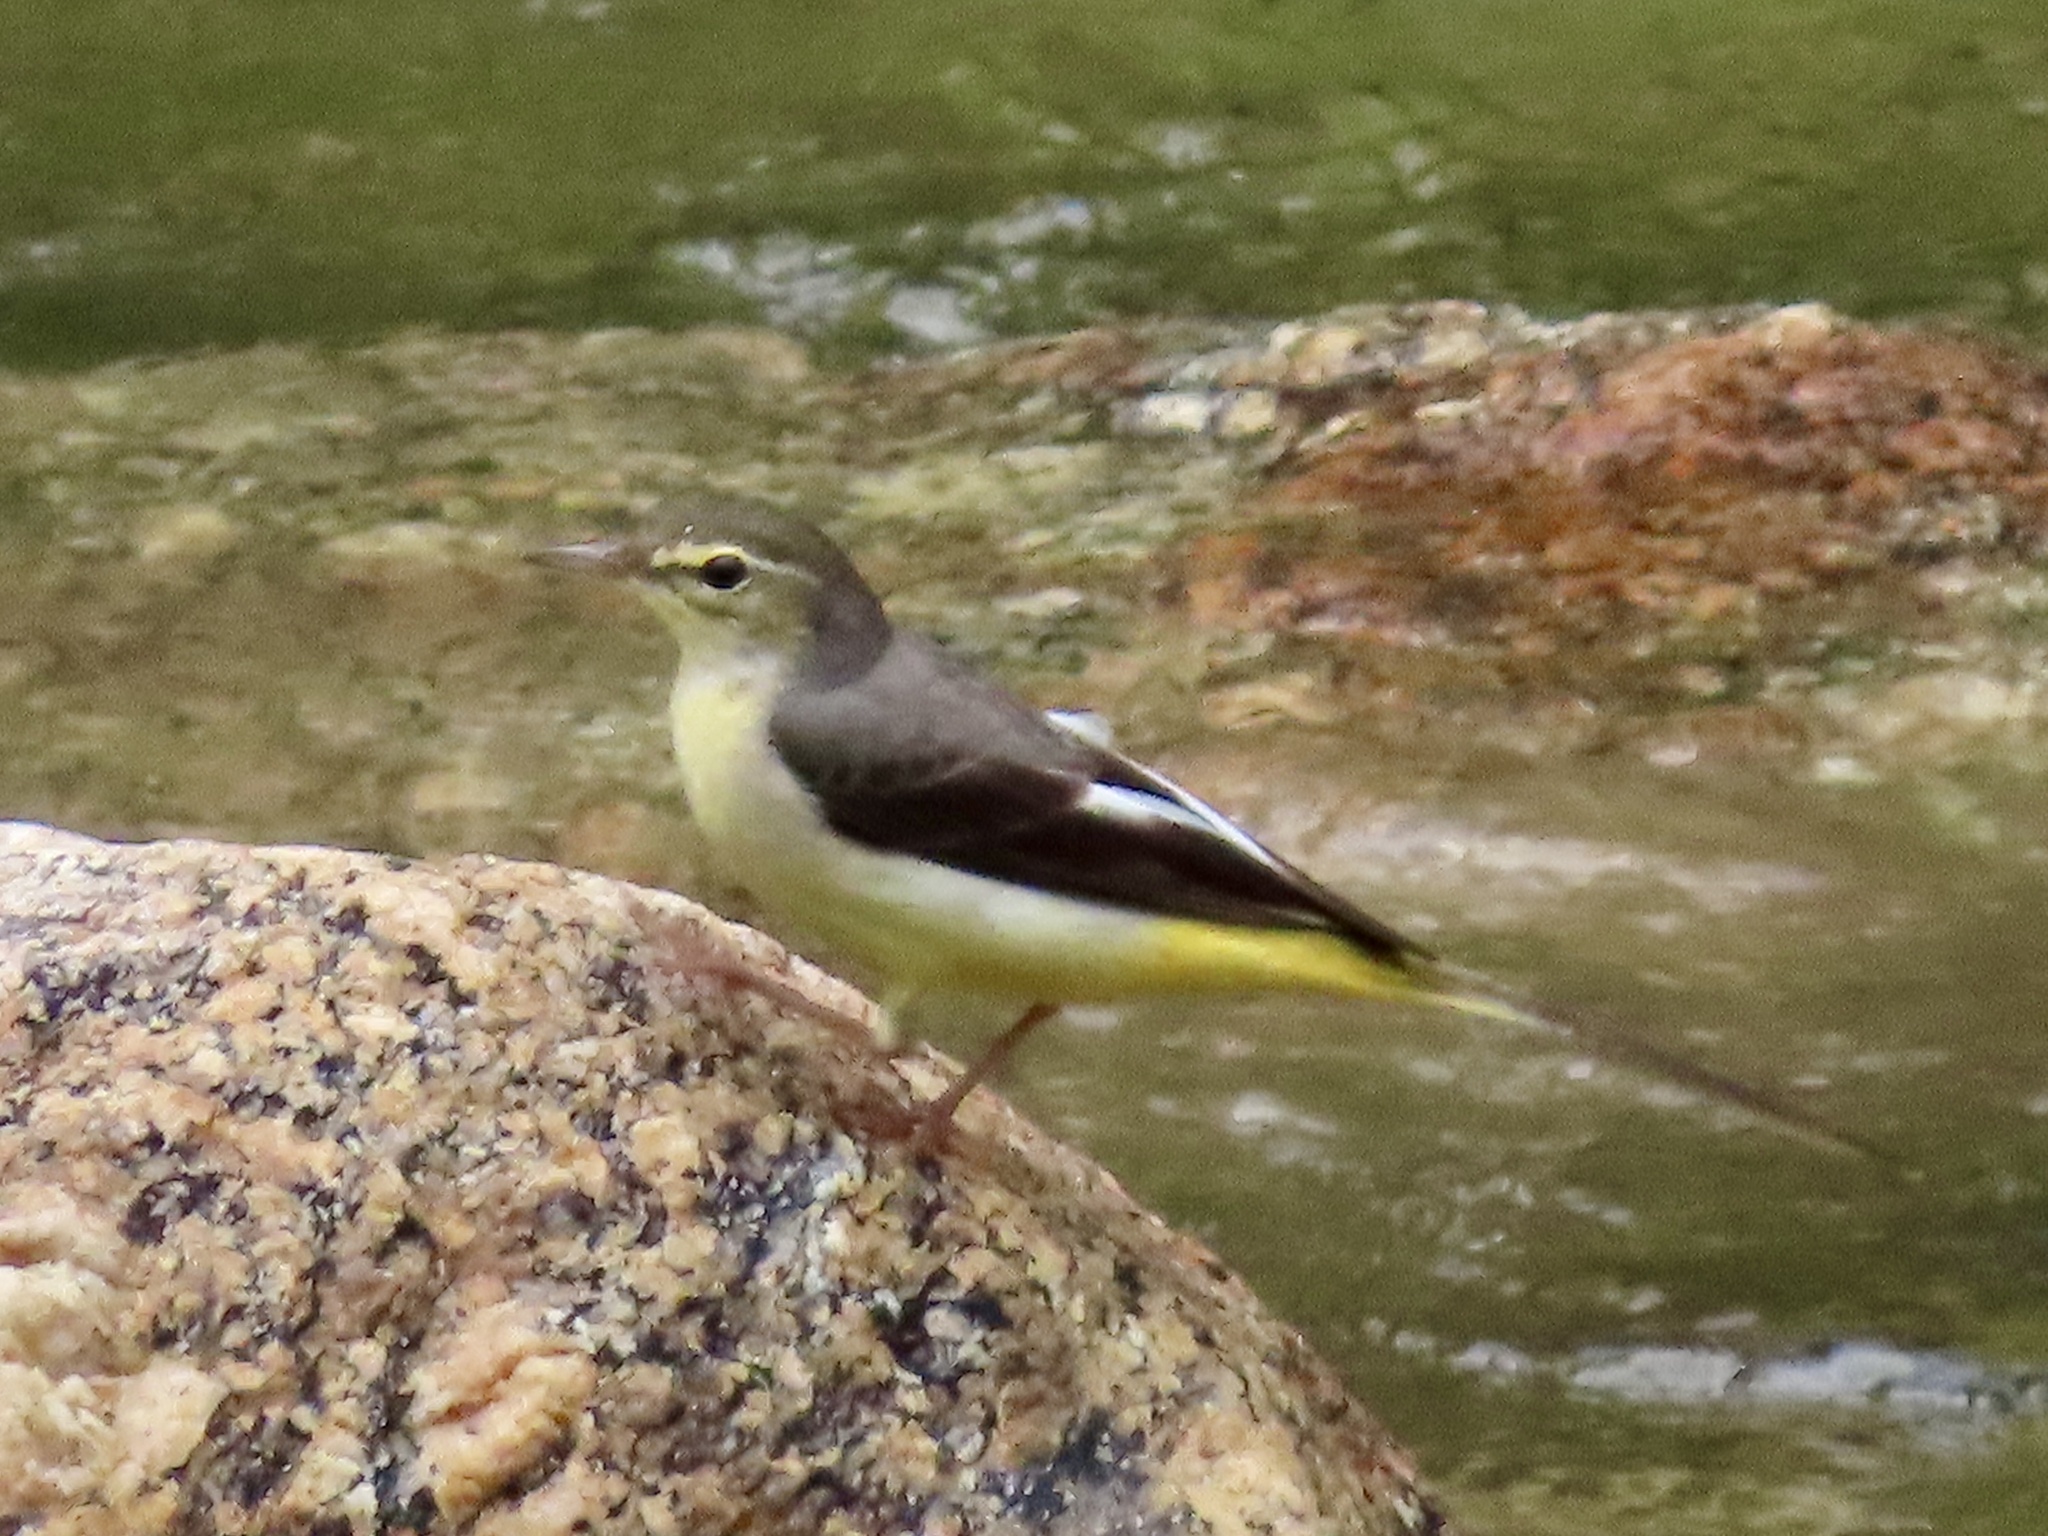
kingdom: Animalia
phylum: Chordata
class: Aves
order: Passeriformes
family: Motacillidae
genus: Motacilla
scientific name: Motacilla cinerea
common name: Grey wagtail
